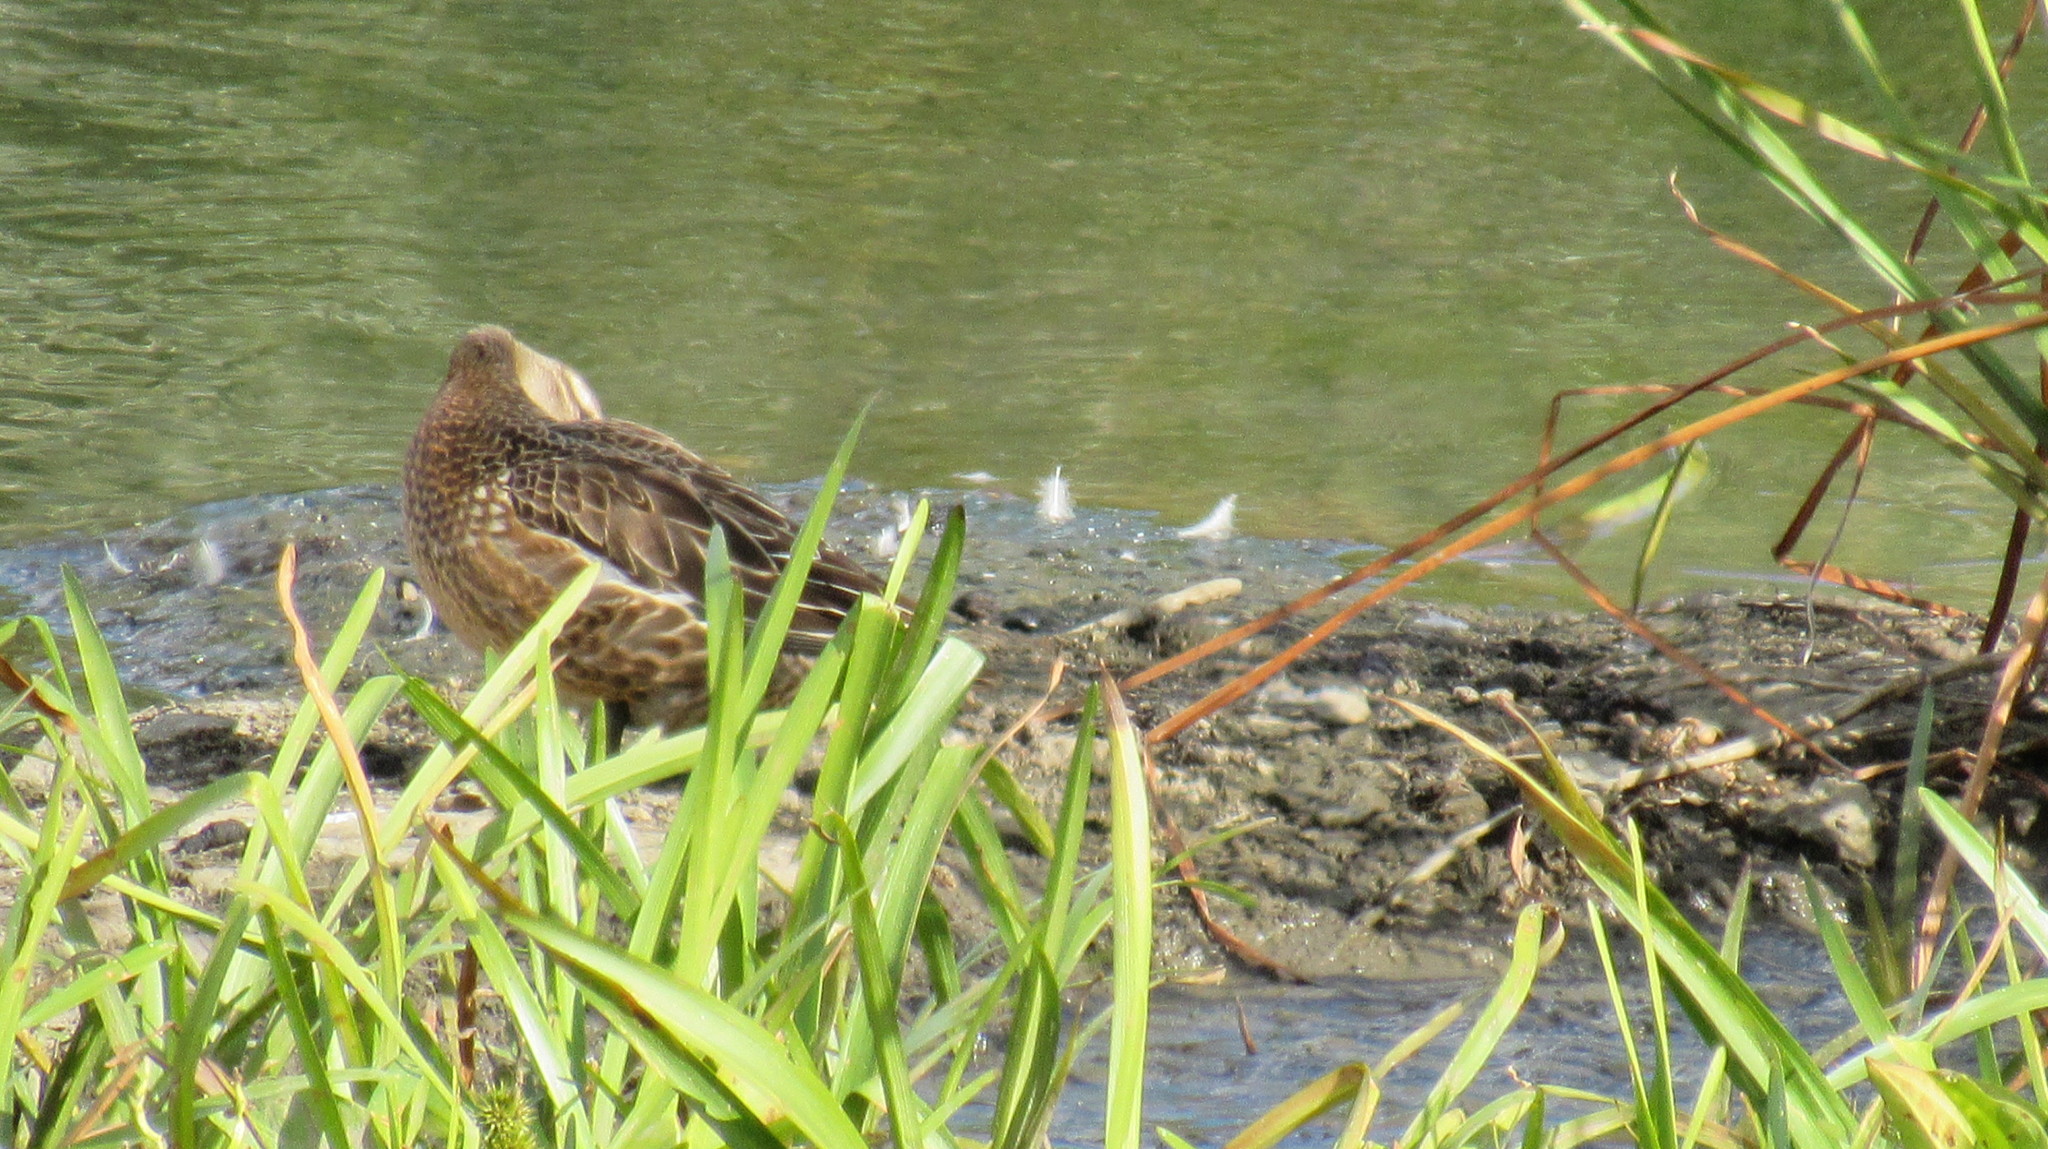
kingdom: Animalia
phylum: Chordata
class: Aves
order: Anseriformes
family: Anatidae
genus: Spatula
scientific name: Spatula querquedula
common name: Garganey
